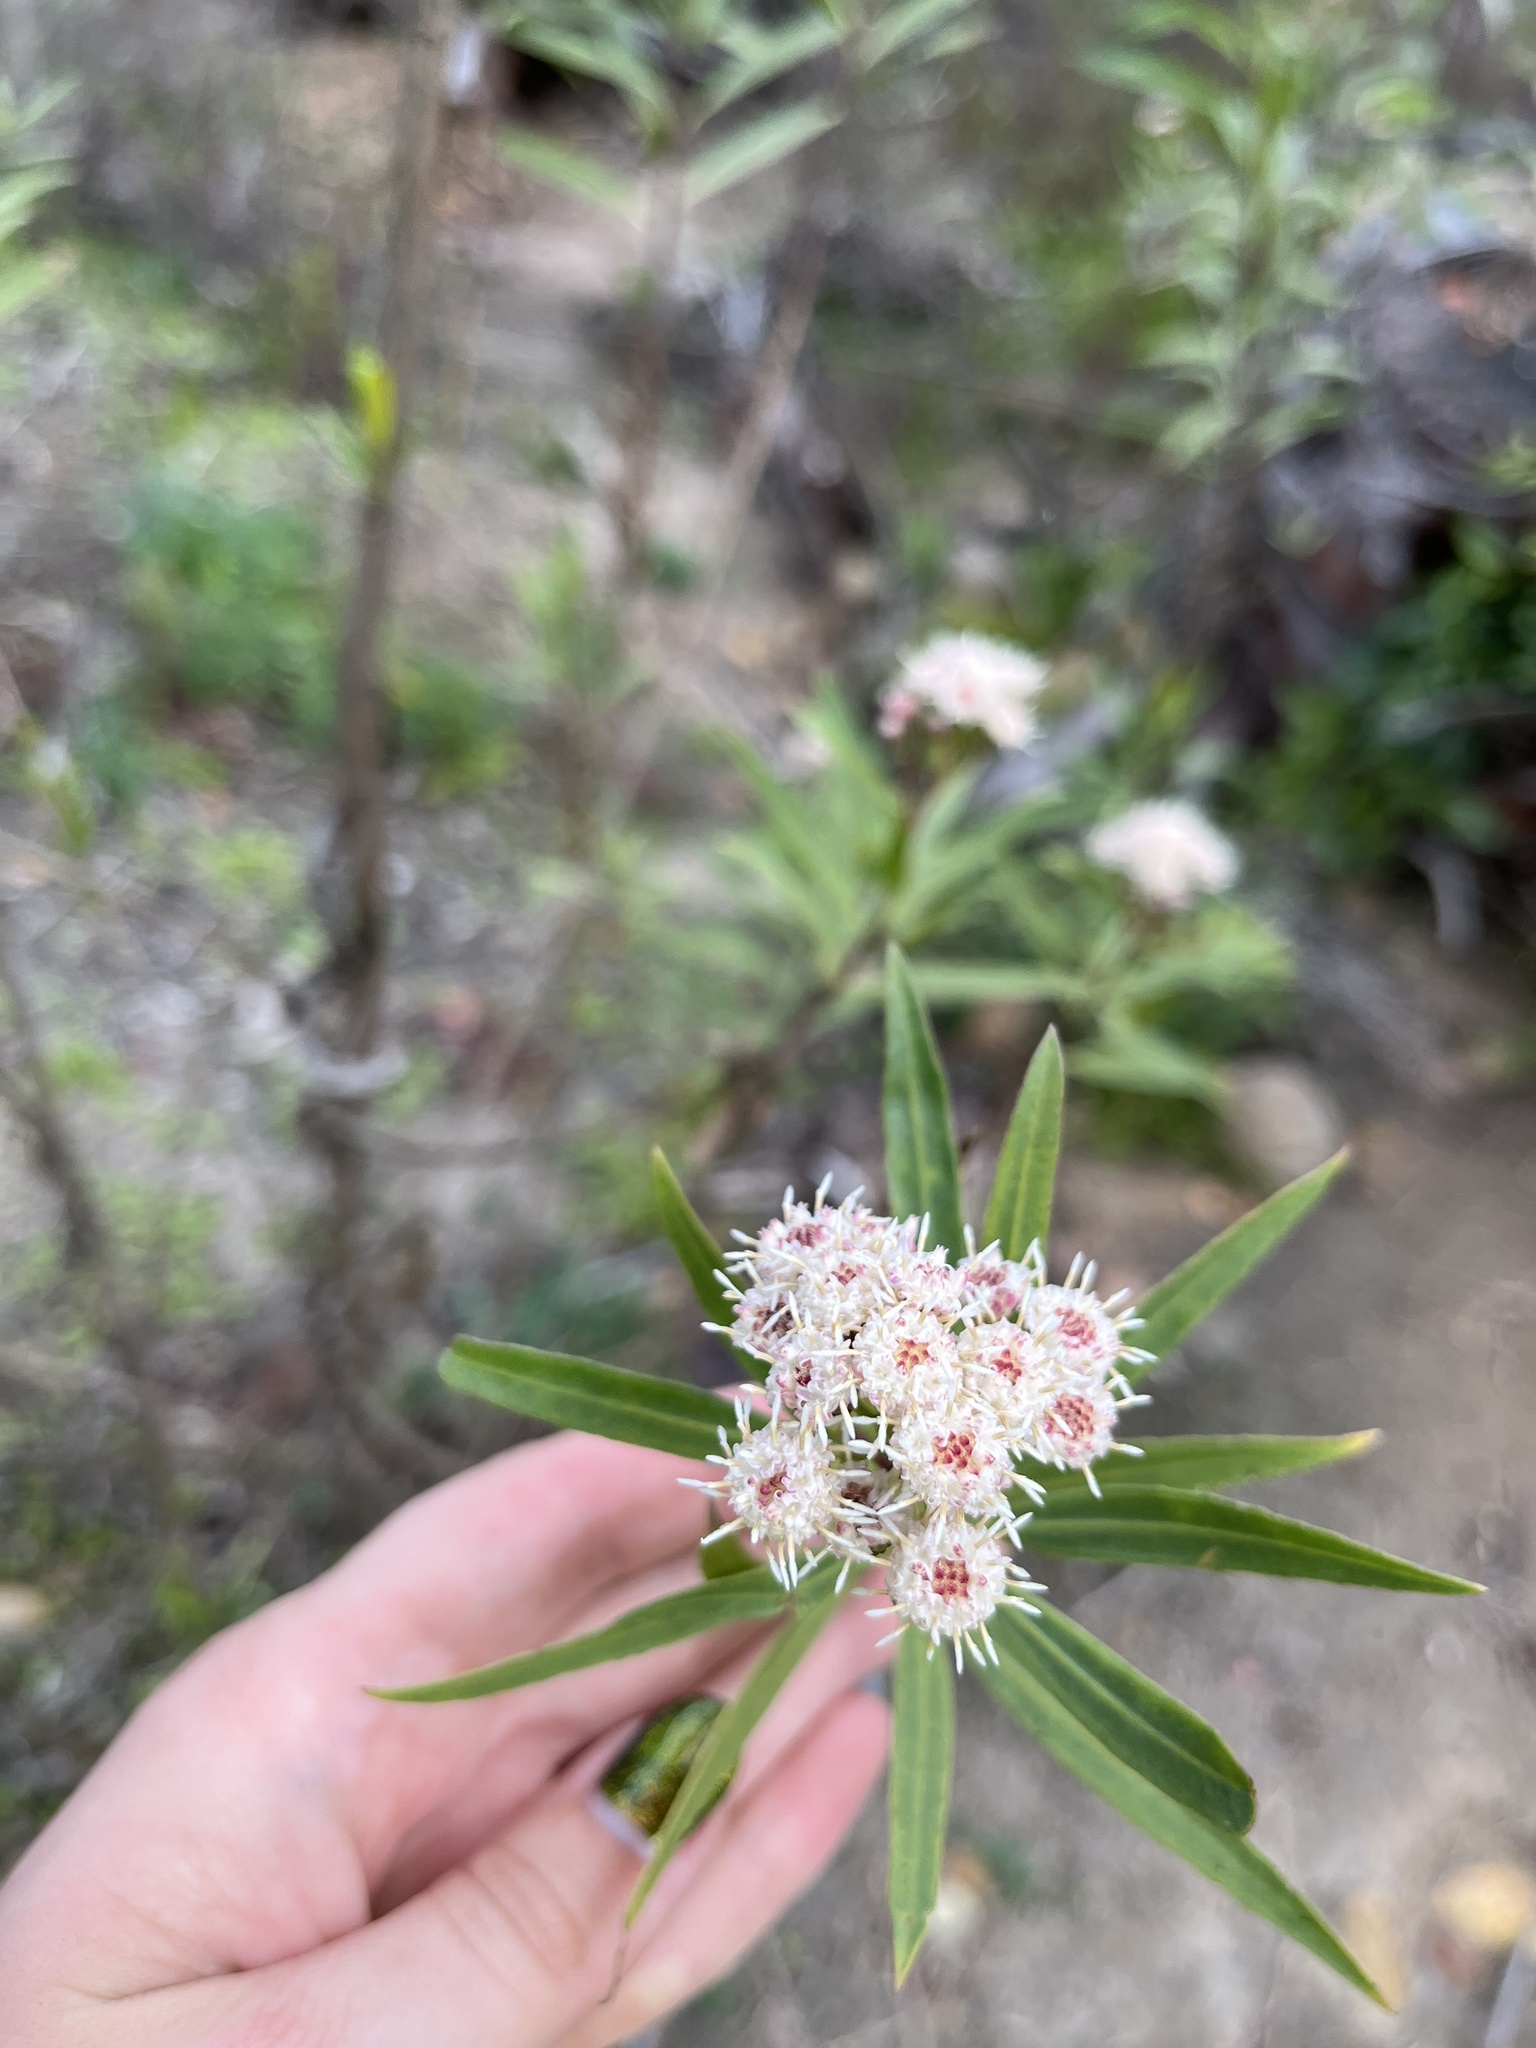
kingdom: Plantae
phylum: Tracheophyta
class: Magnoliopsida
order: Asterales
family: Asteraceae
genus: Baccharis
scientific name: Baccharis salicifolia
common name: Sticky baccharis
